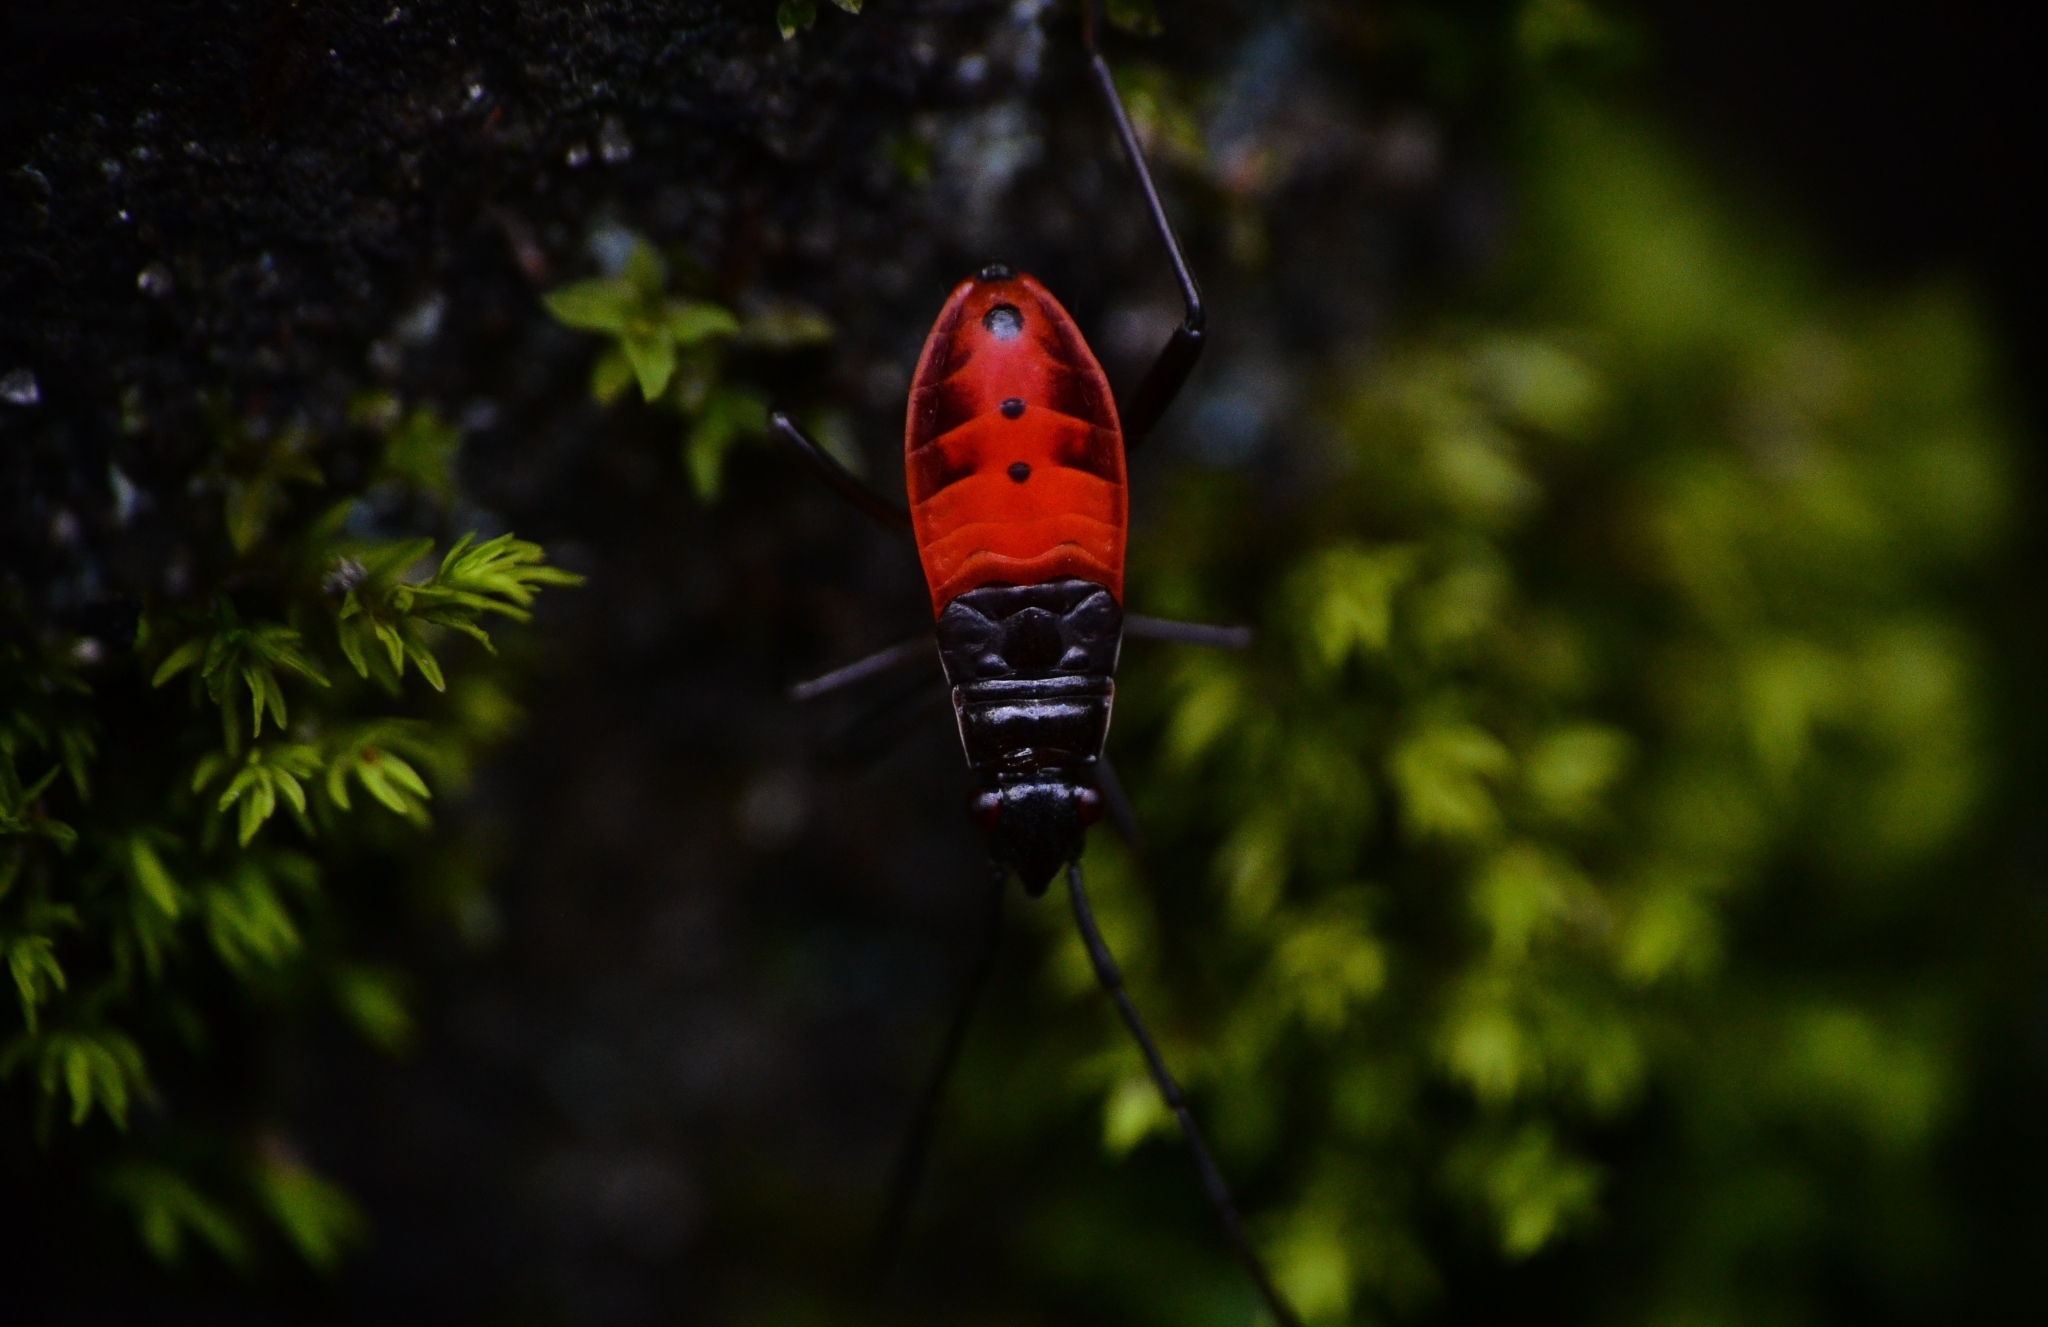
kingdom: Animalia
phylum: Arthropoda
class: Insecta
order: Hemiptera
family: Pyrrhocoridae
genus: Melamphaus
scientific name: Melamphaus
